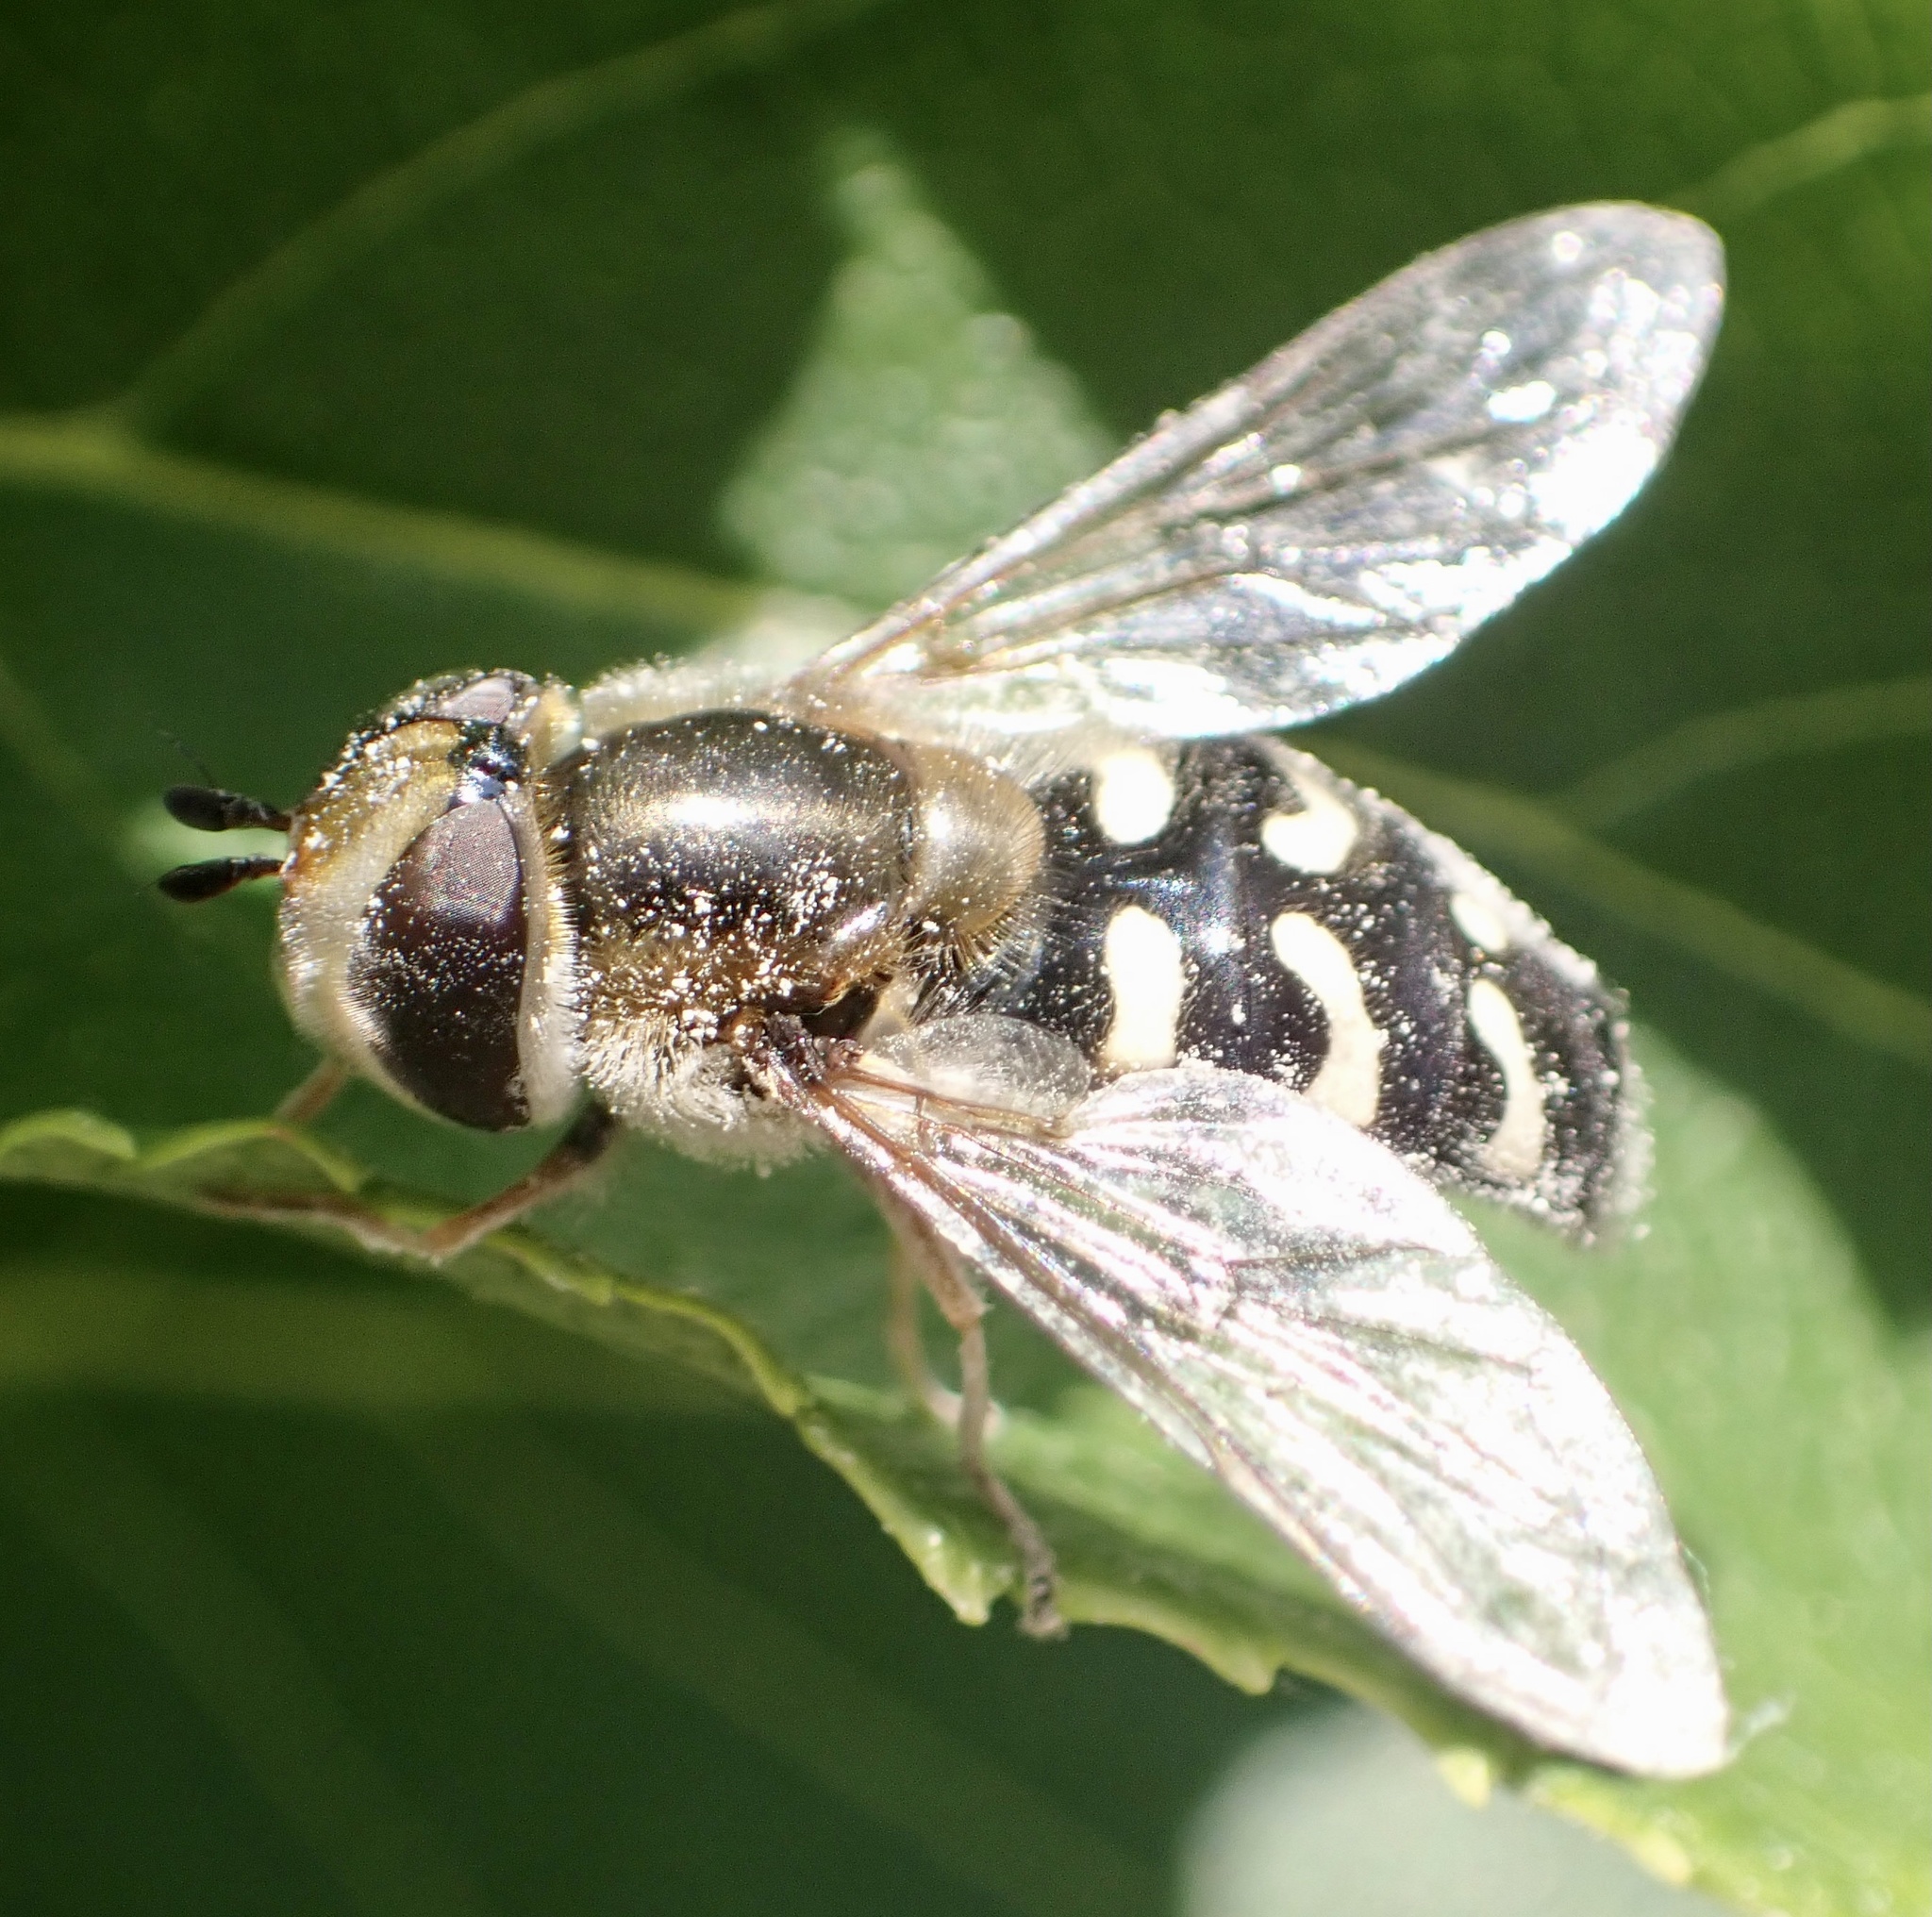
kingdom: Animalia
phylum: Arthropoda
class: Insecta
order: Diptera
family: Syrphidae
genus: Scaeva
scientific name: Scaeva pyrastri
